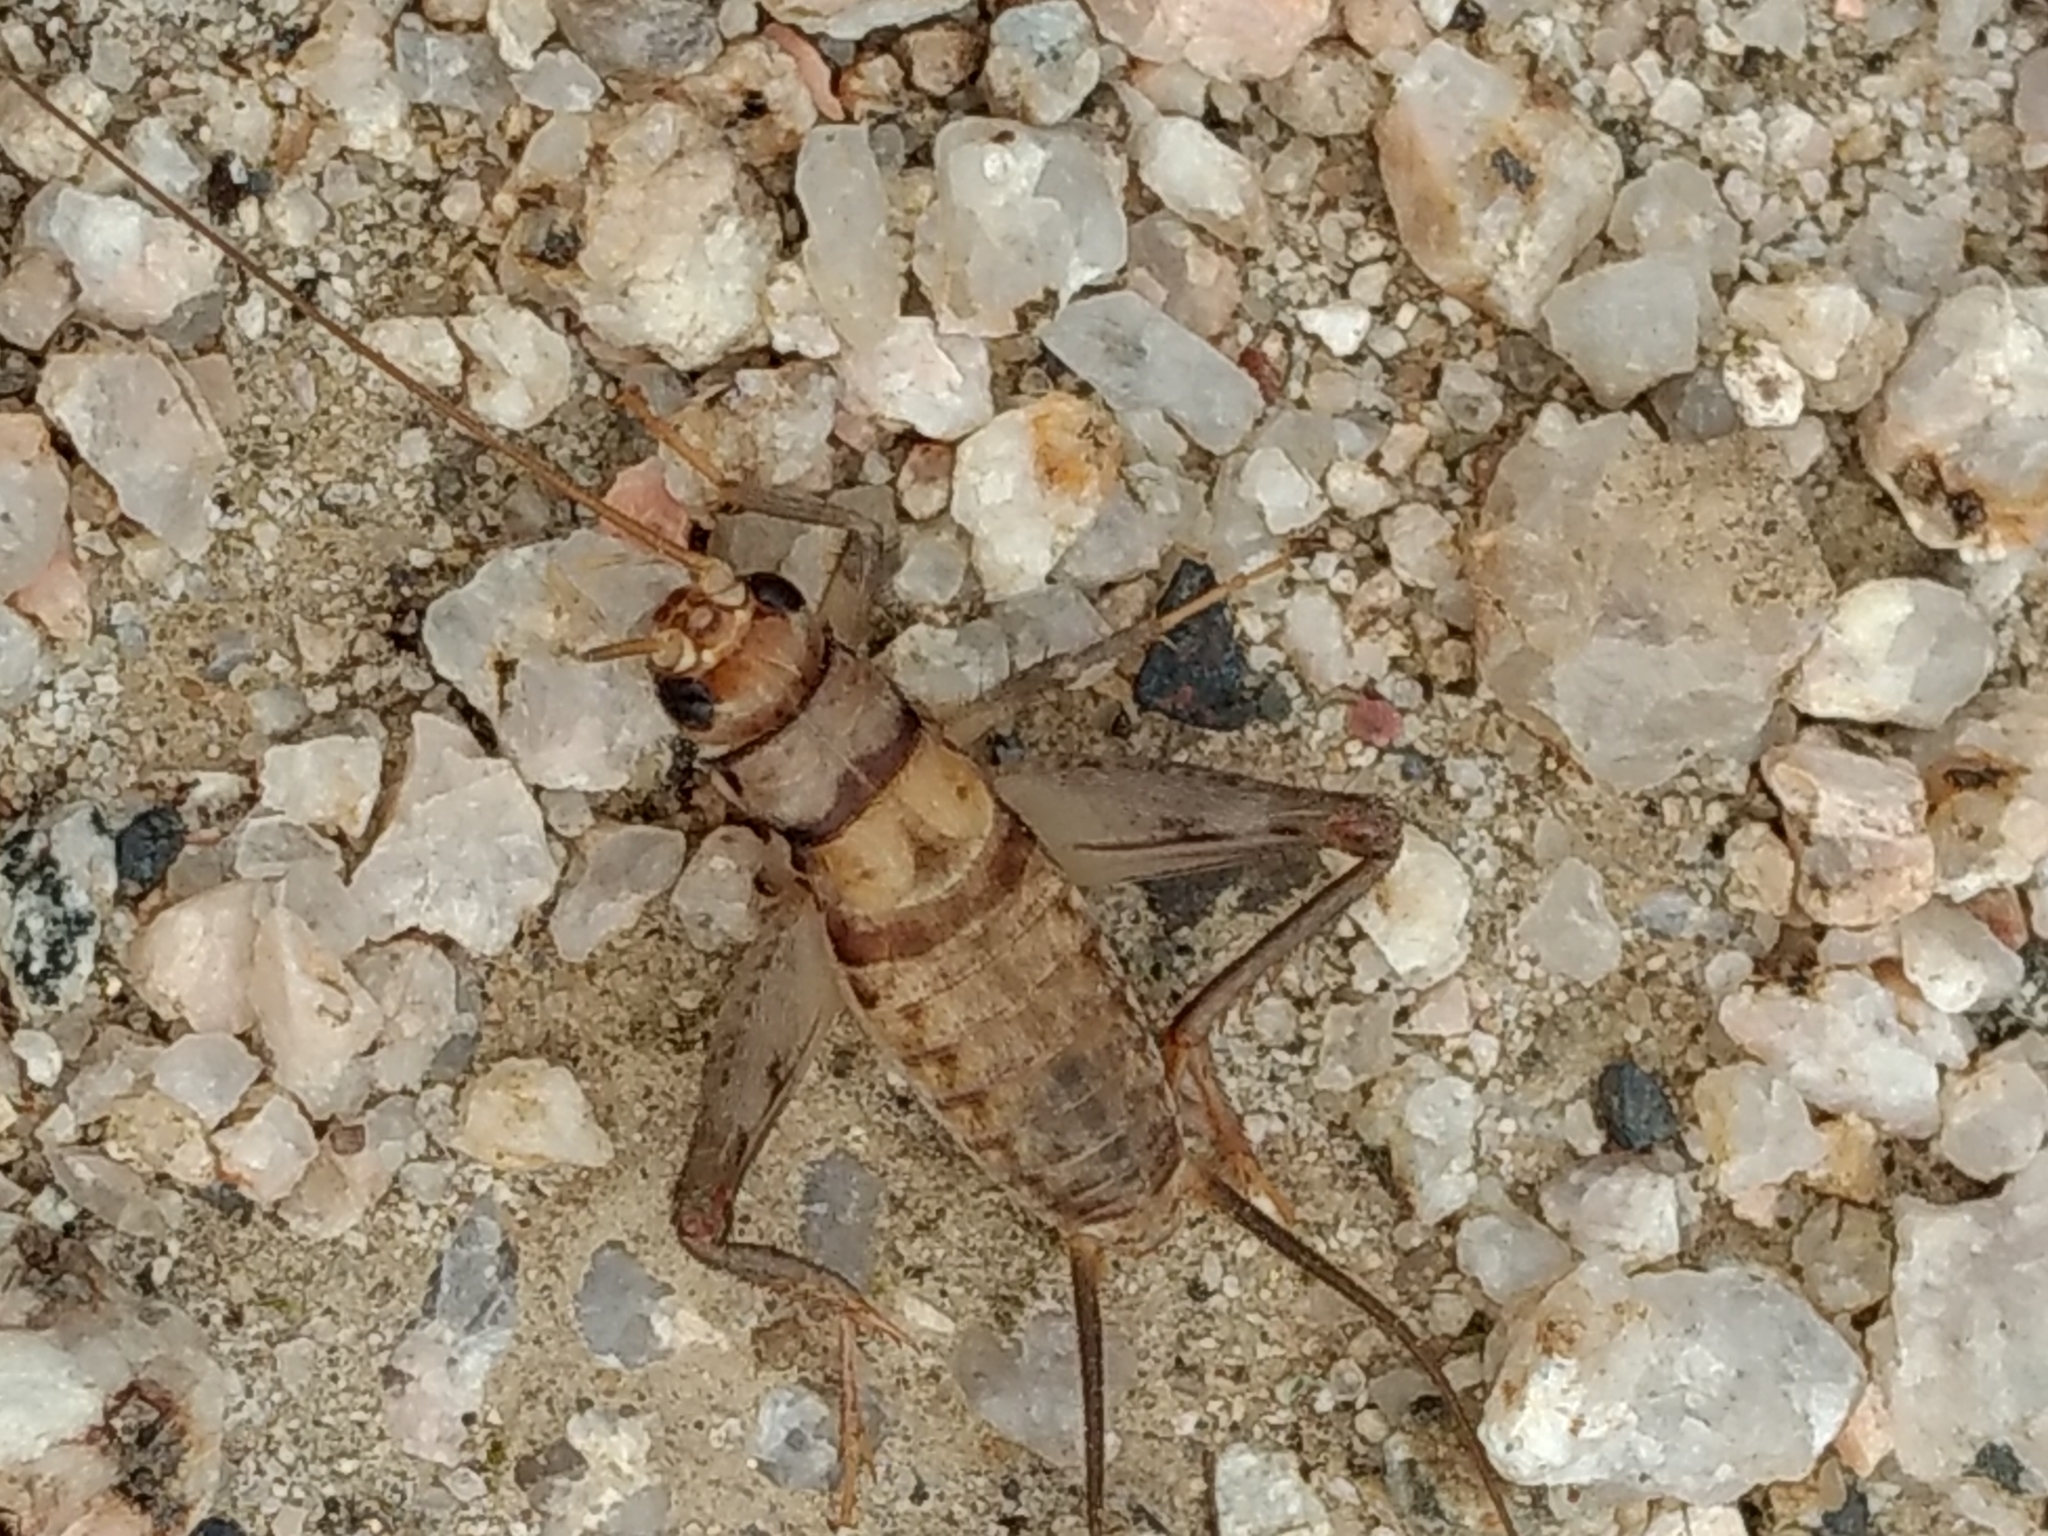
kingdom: Animalia
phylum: Arthropoda
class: Insecta
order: Orthoptera
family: Gryllidae
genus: Gryllodes
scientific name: Gryllodes sigillatus
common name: Tropical house cricket
